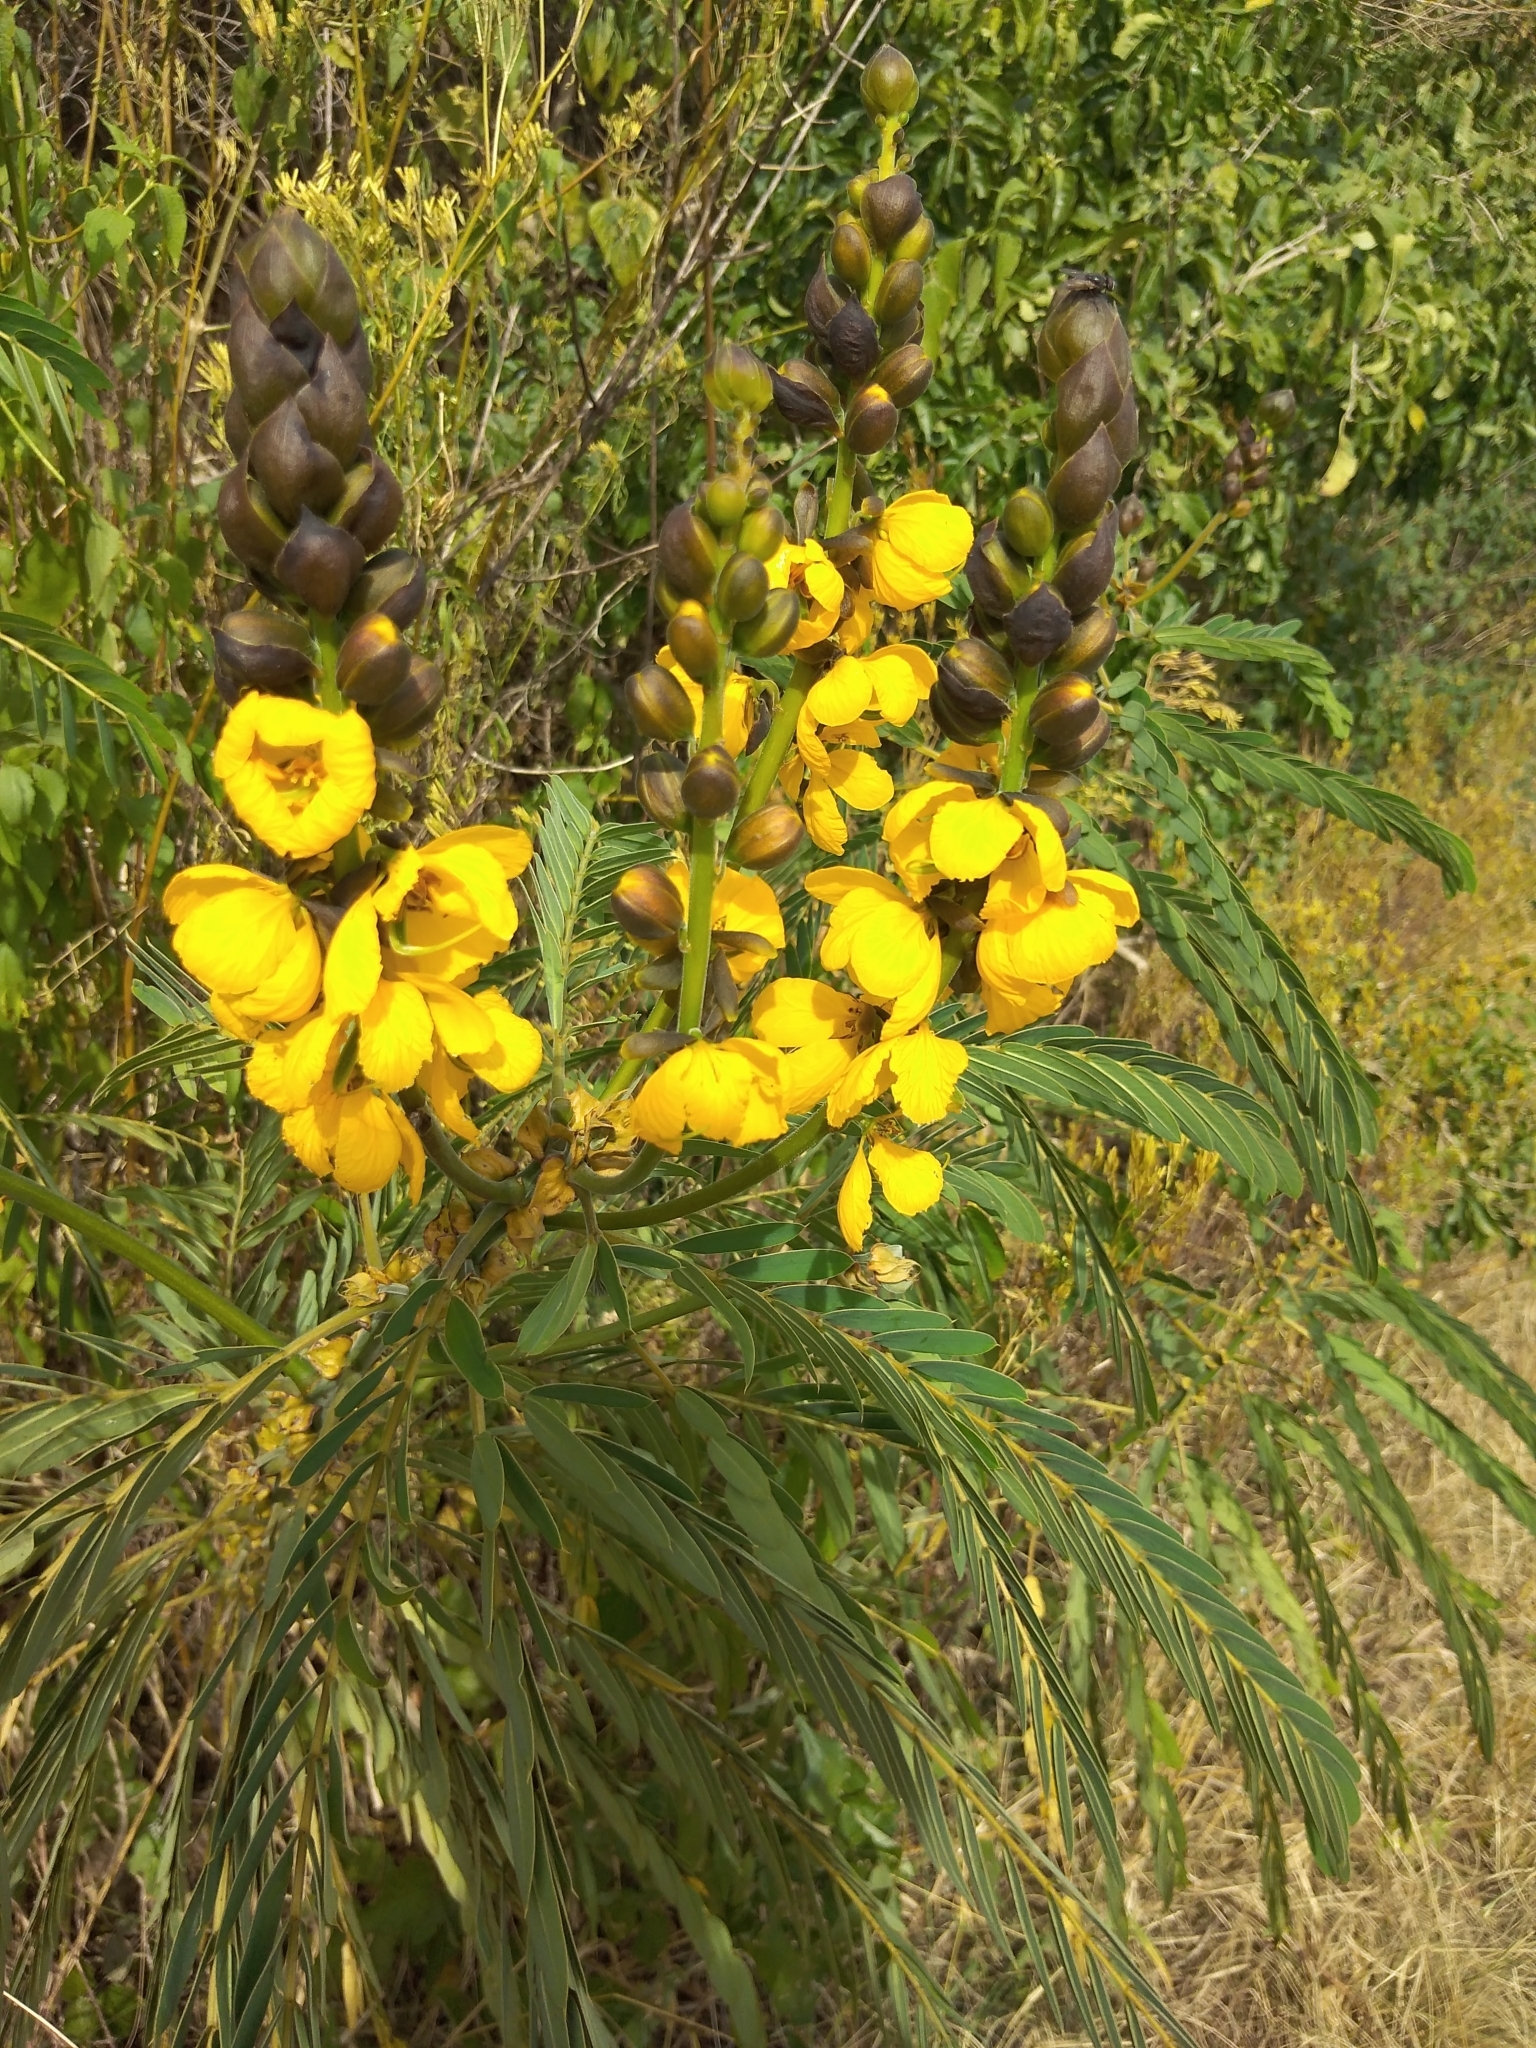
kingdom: Plantae
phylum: Tracheophyta
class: Magnoliopsida
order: Fabales
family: Fabaceae
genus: Senna
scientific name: Senna didymobotrya
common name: African senna
